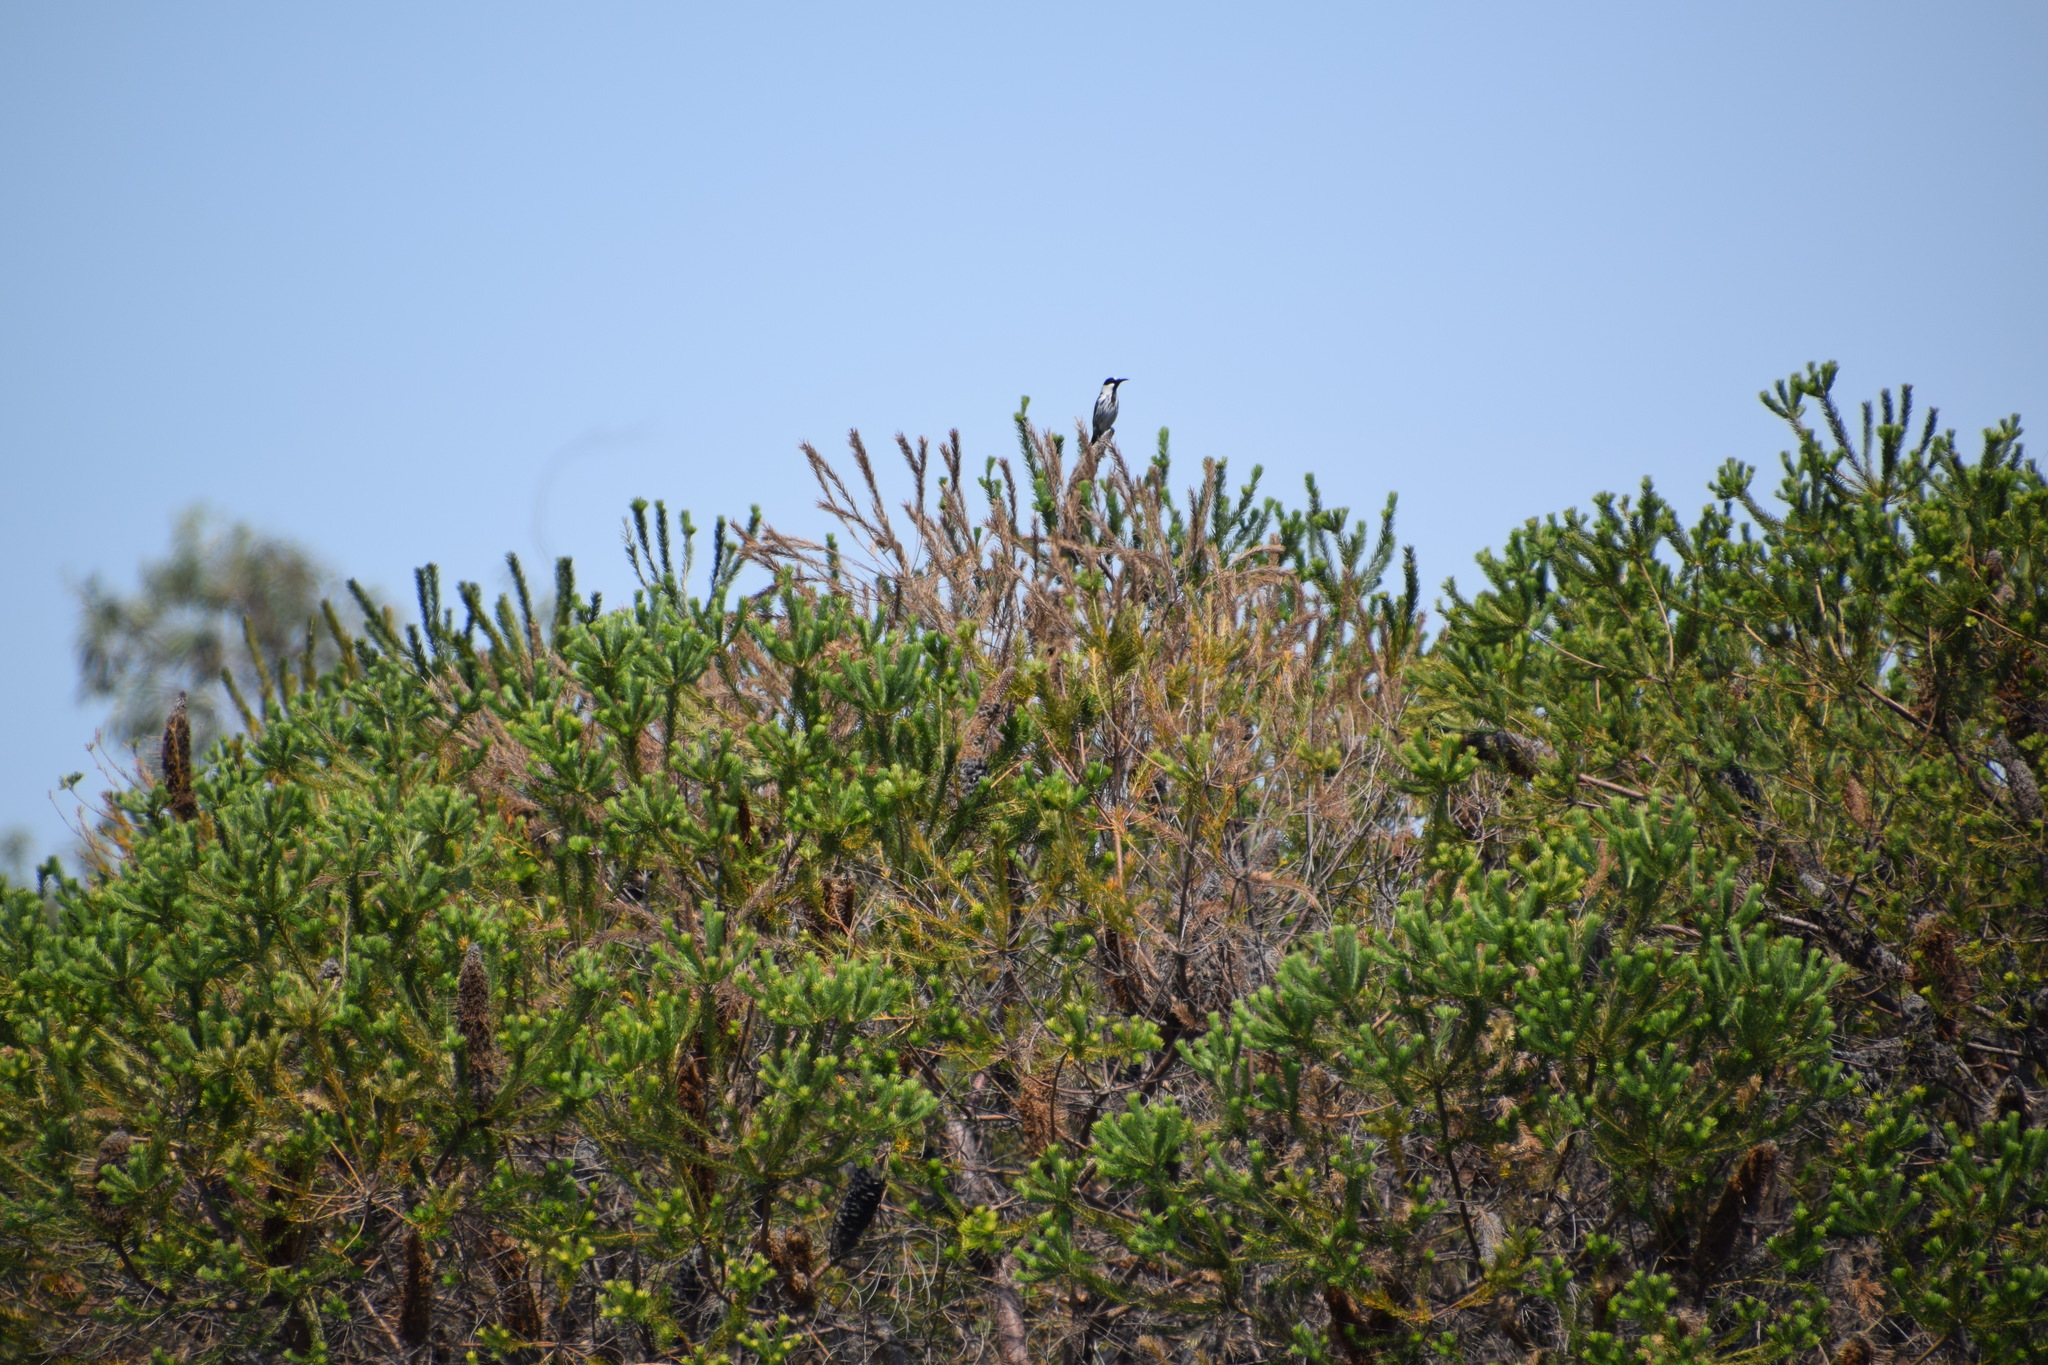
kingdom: Animalia
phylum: Chordata
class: Aves
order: Passeriformes
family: Meliphagidae
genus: Phylidonyris
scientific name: Phylidonyris niger
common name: White-cheeked honeyeater
